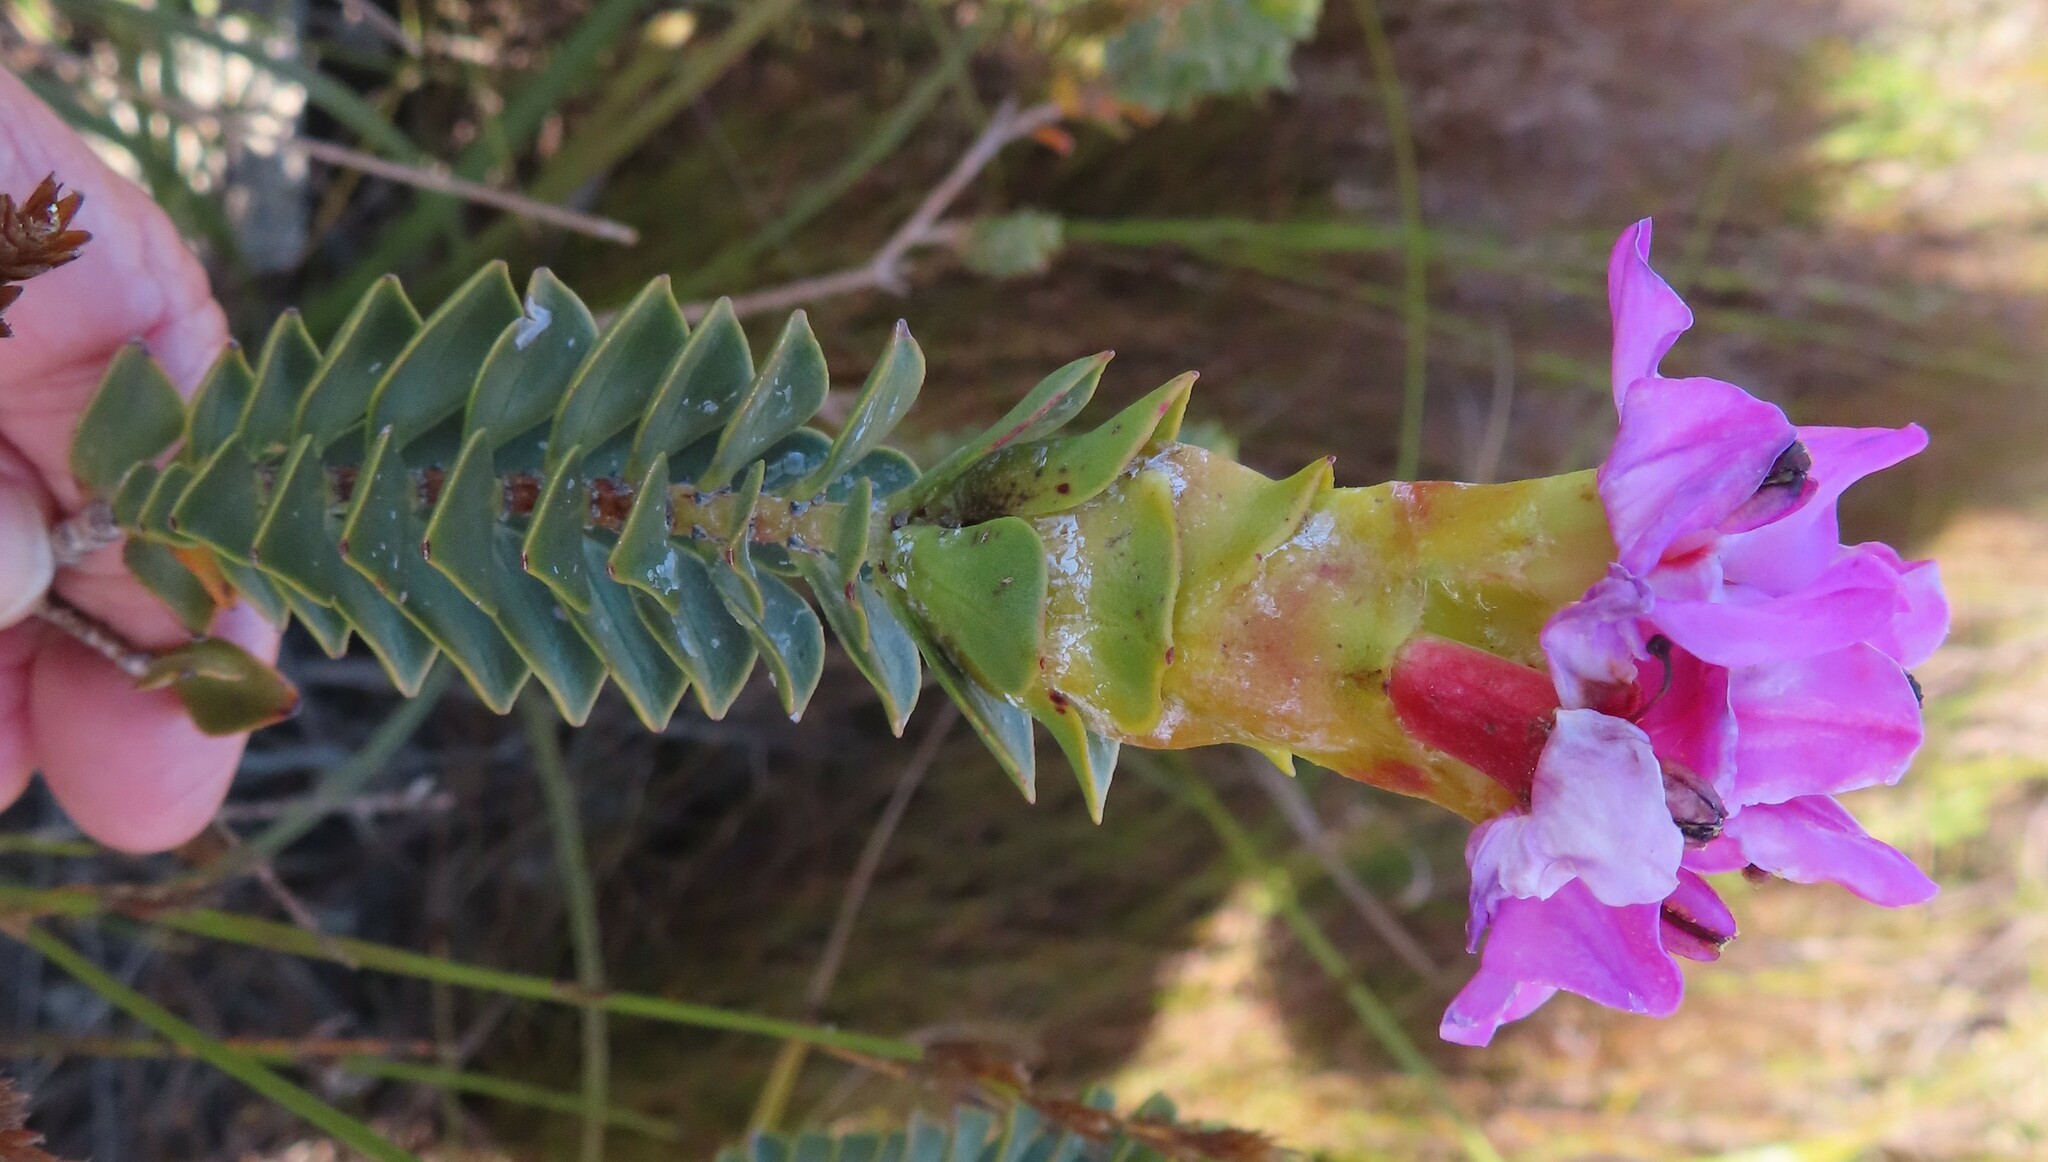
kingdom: Plantae
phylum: Tracheophyta
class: Magnoliopsida
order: Myrtales
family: Penaeaceae
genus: Saltera
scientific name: Saltera sarcocolla
